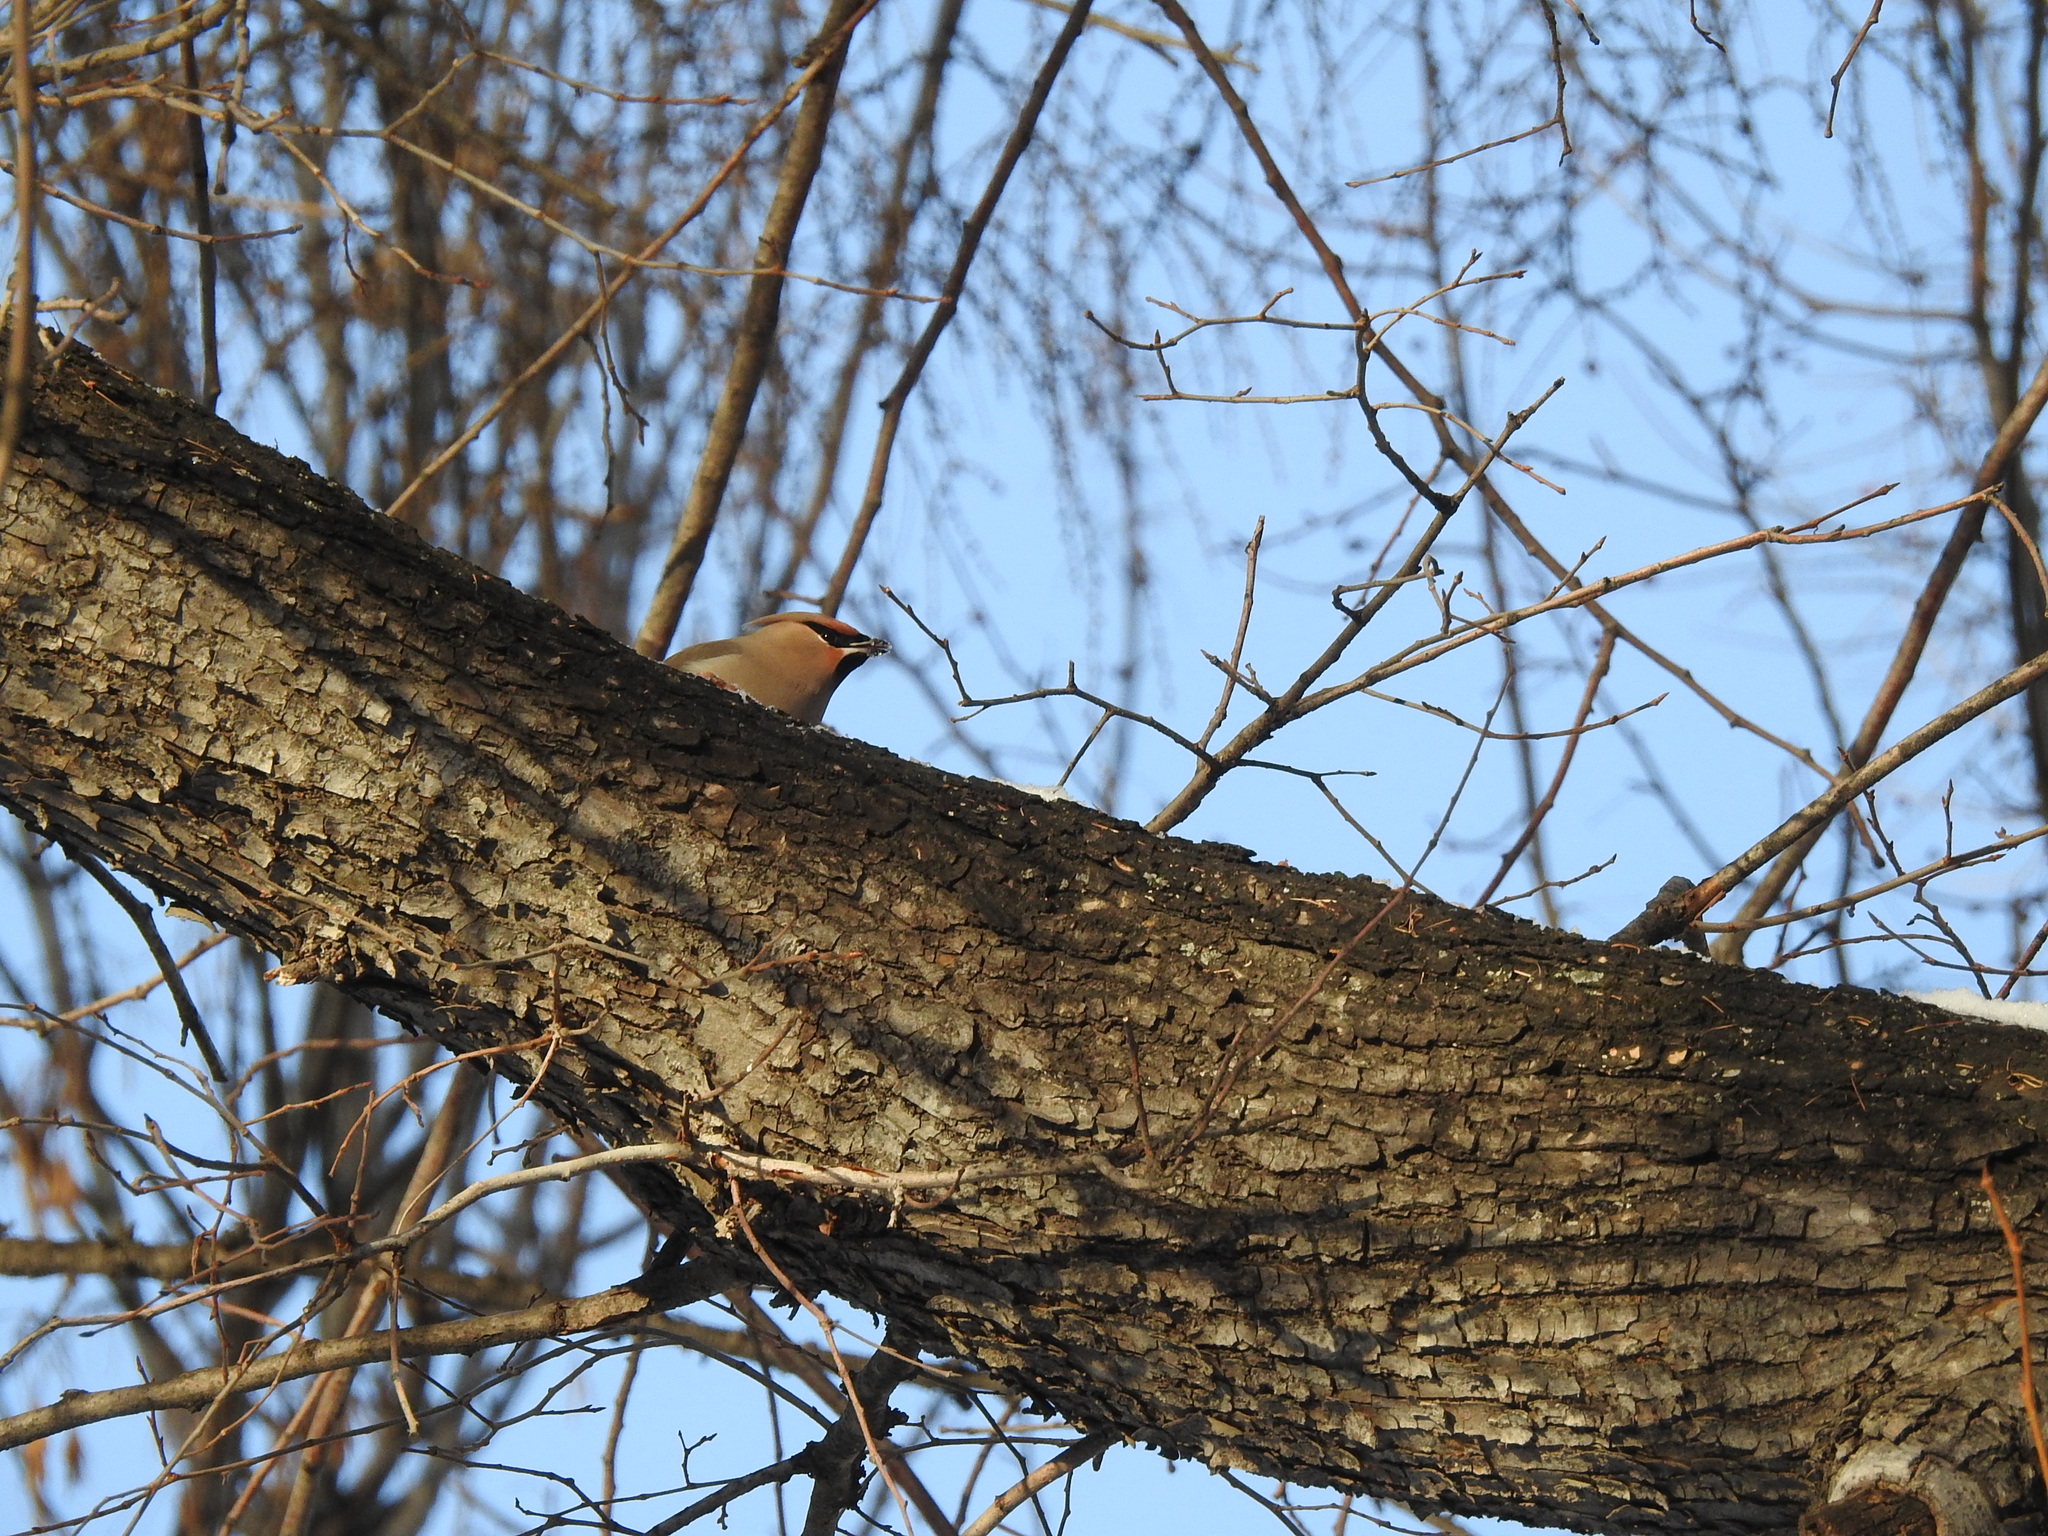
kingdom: Animalia
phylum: Chordata
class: Aves
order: Passeriformes
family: Bombycillidae
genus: Bombycilla
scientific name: Bombycilla garrulus
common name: Bohemian waxwing
